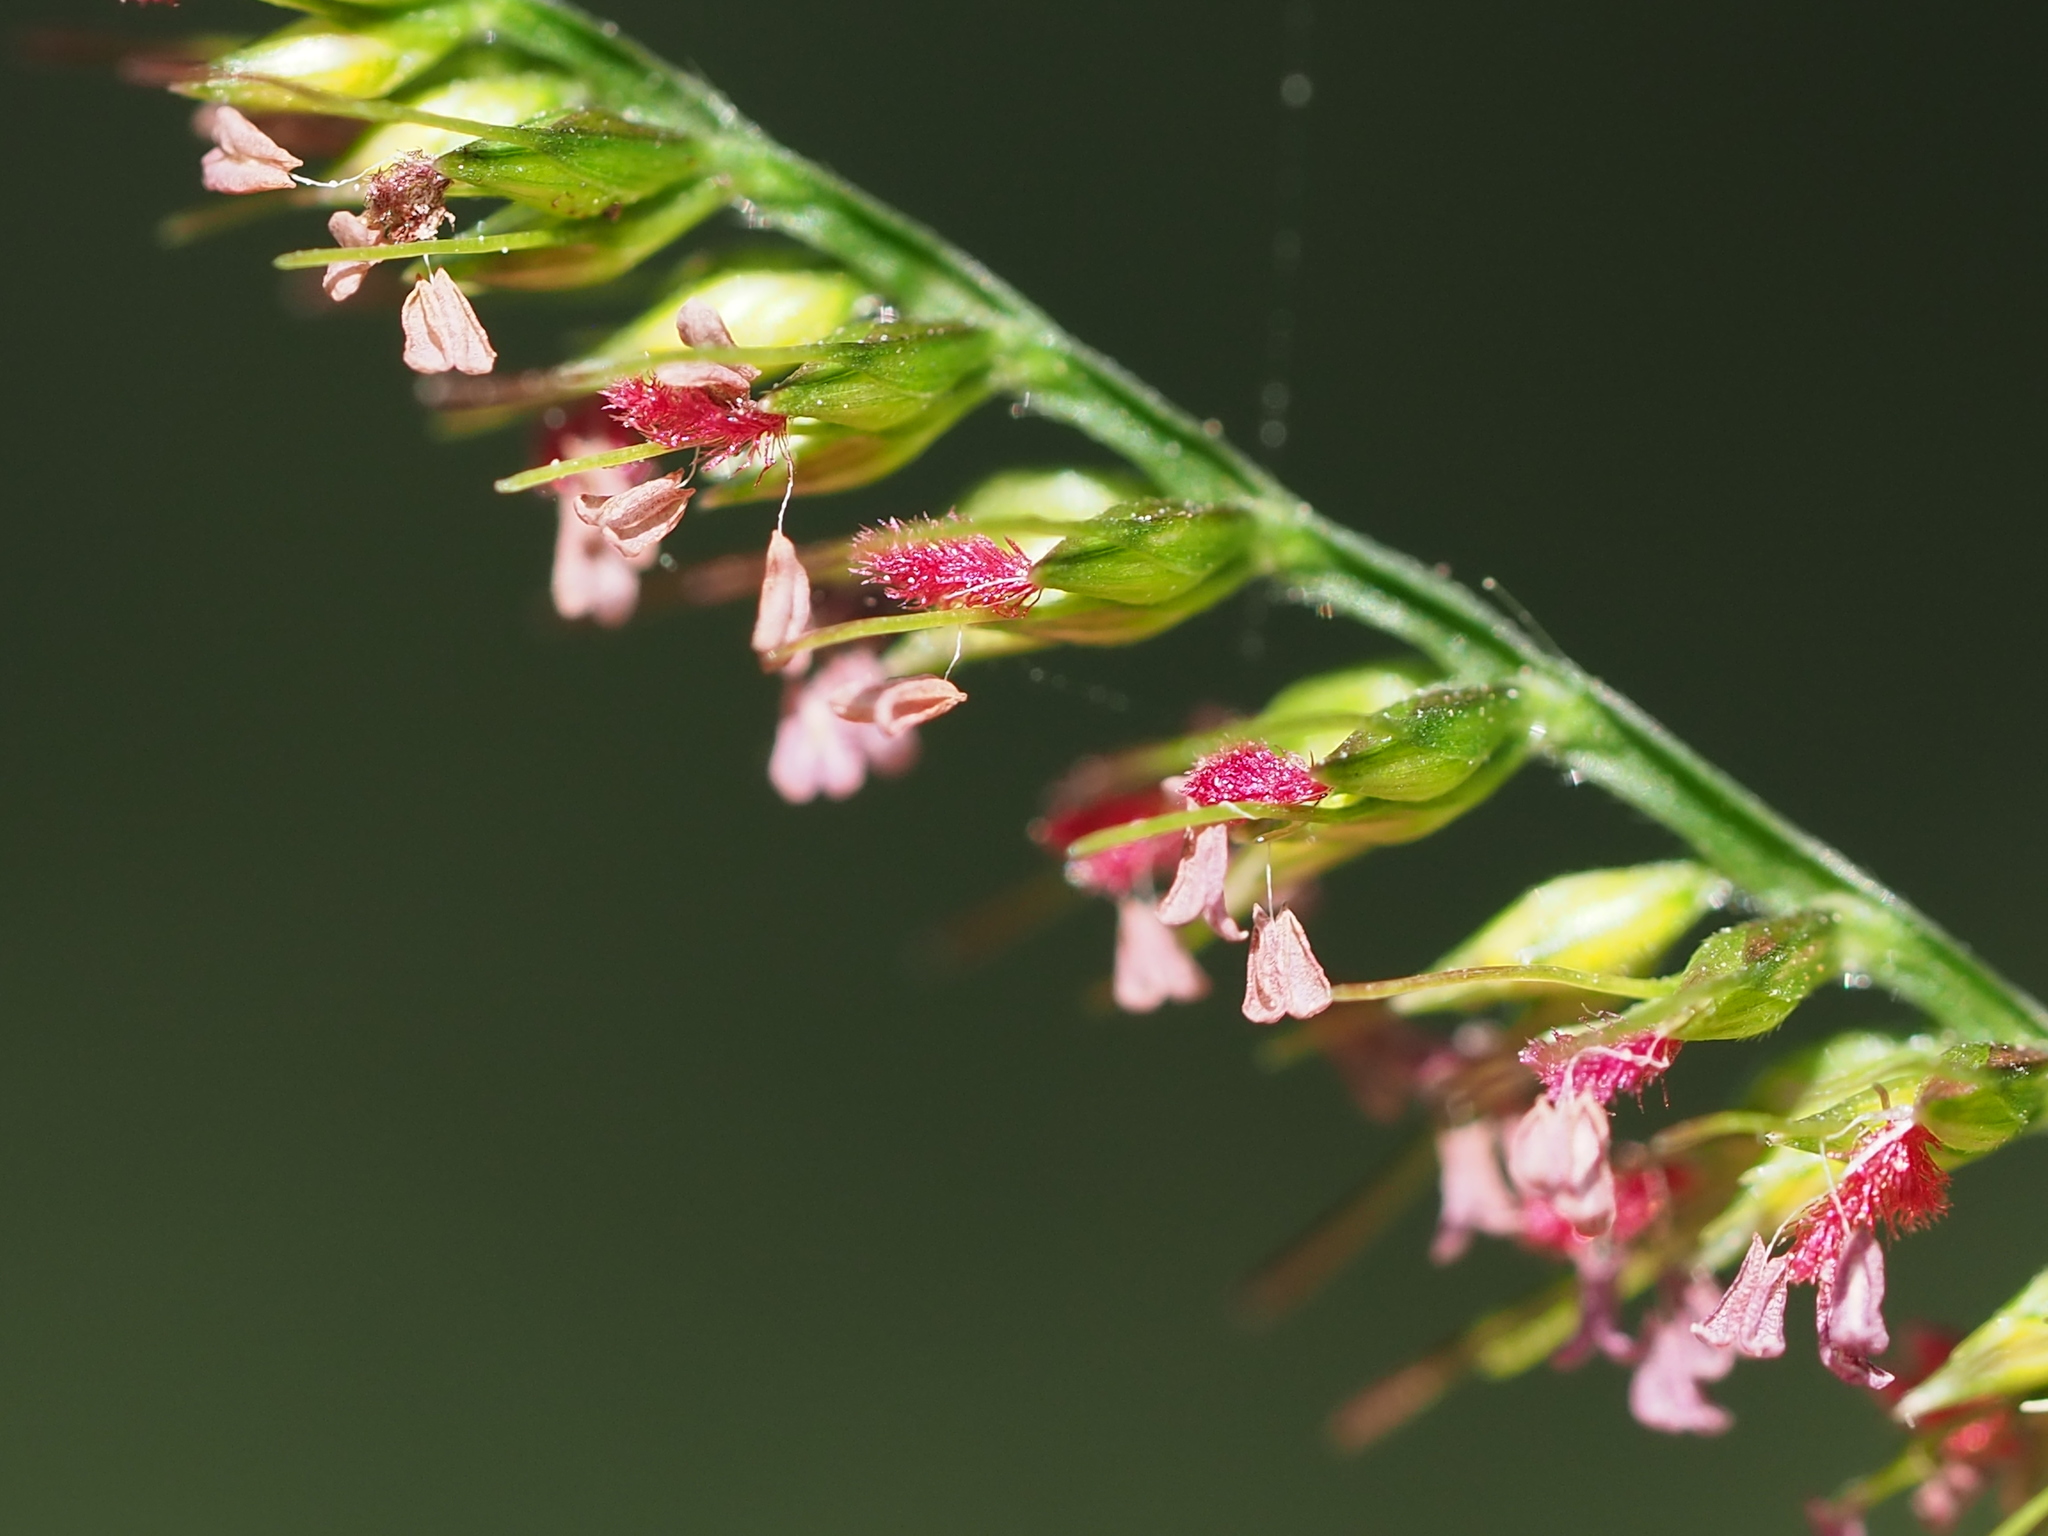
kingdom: Plantae
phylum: Tracheophyta
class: Liliopsida
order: Poales
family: Poaceae
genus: Oplismenus
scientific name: Oplismenus compositus
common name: Running mountain grass
